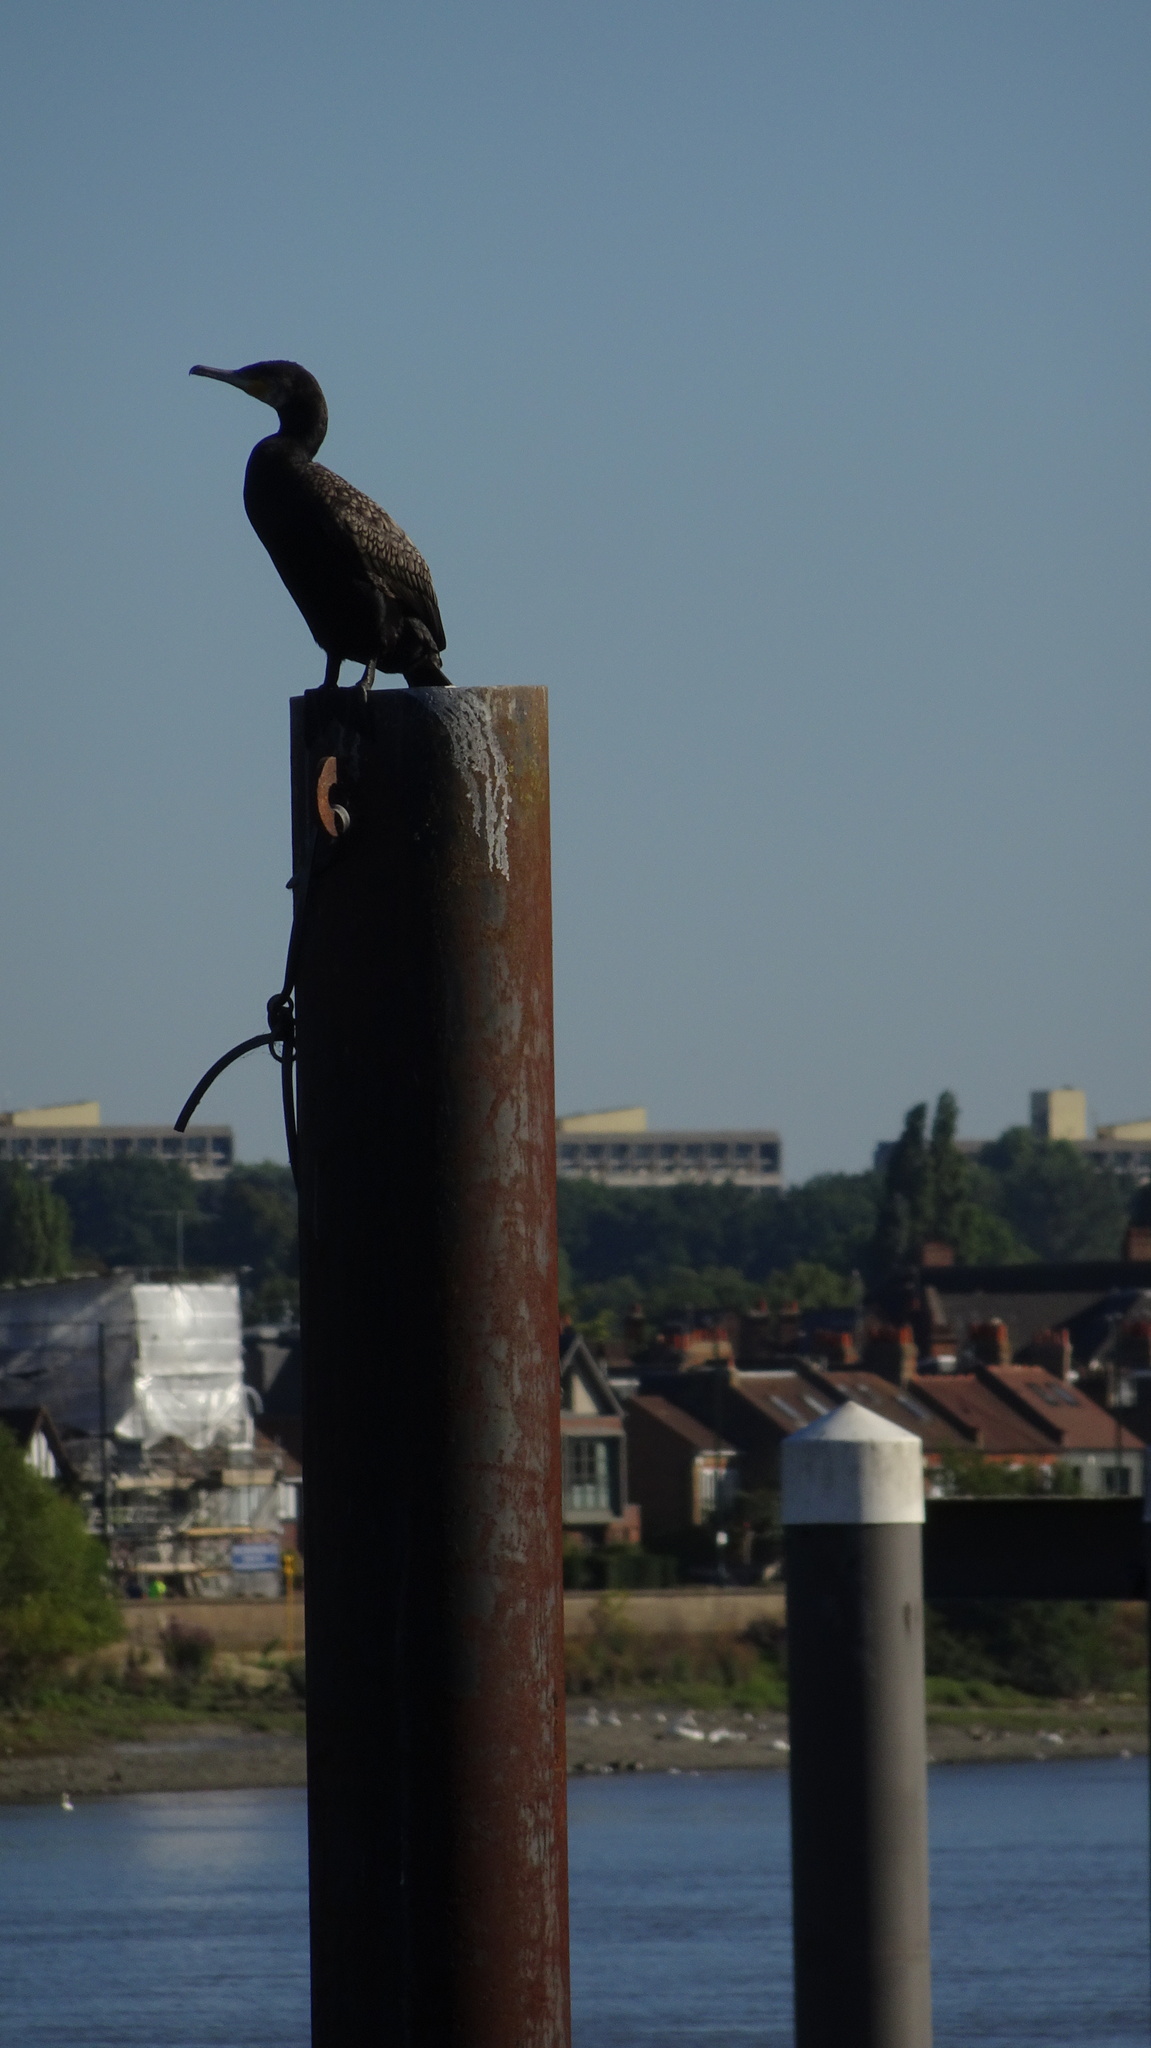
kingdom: Animalia
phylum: Chordata
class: Aves
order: Suliformes
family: Phalacrocoracidae
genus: Phalacrocorax
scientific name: Phalacrocorax carbo
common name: Great cormorant
